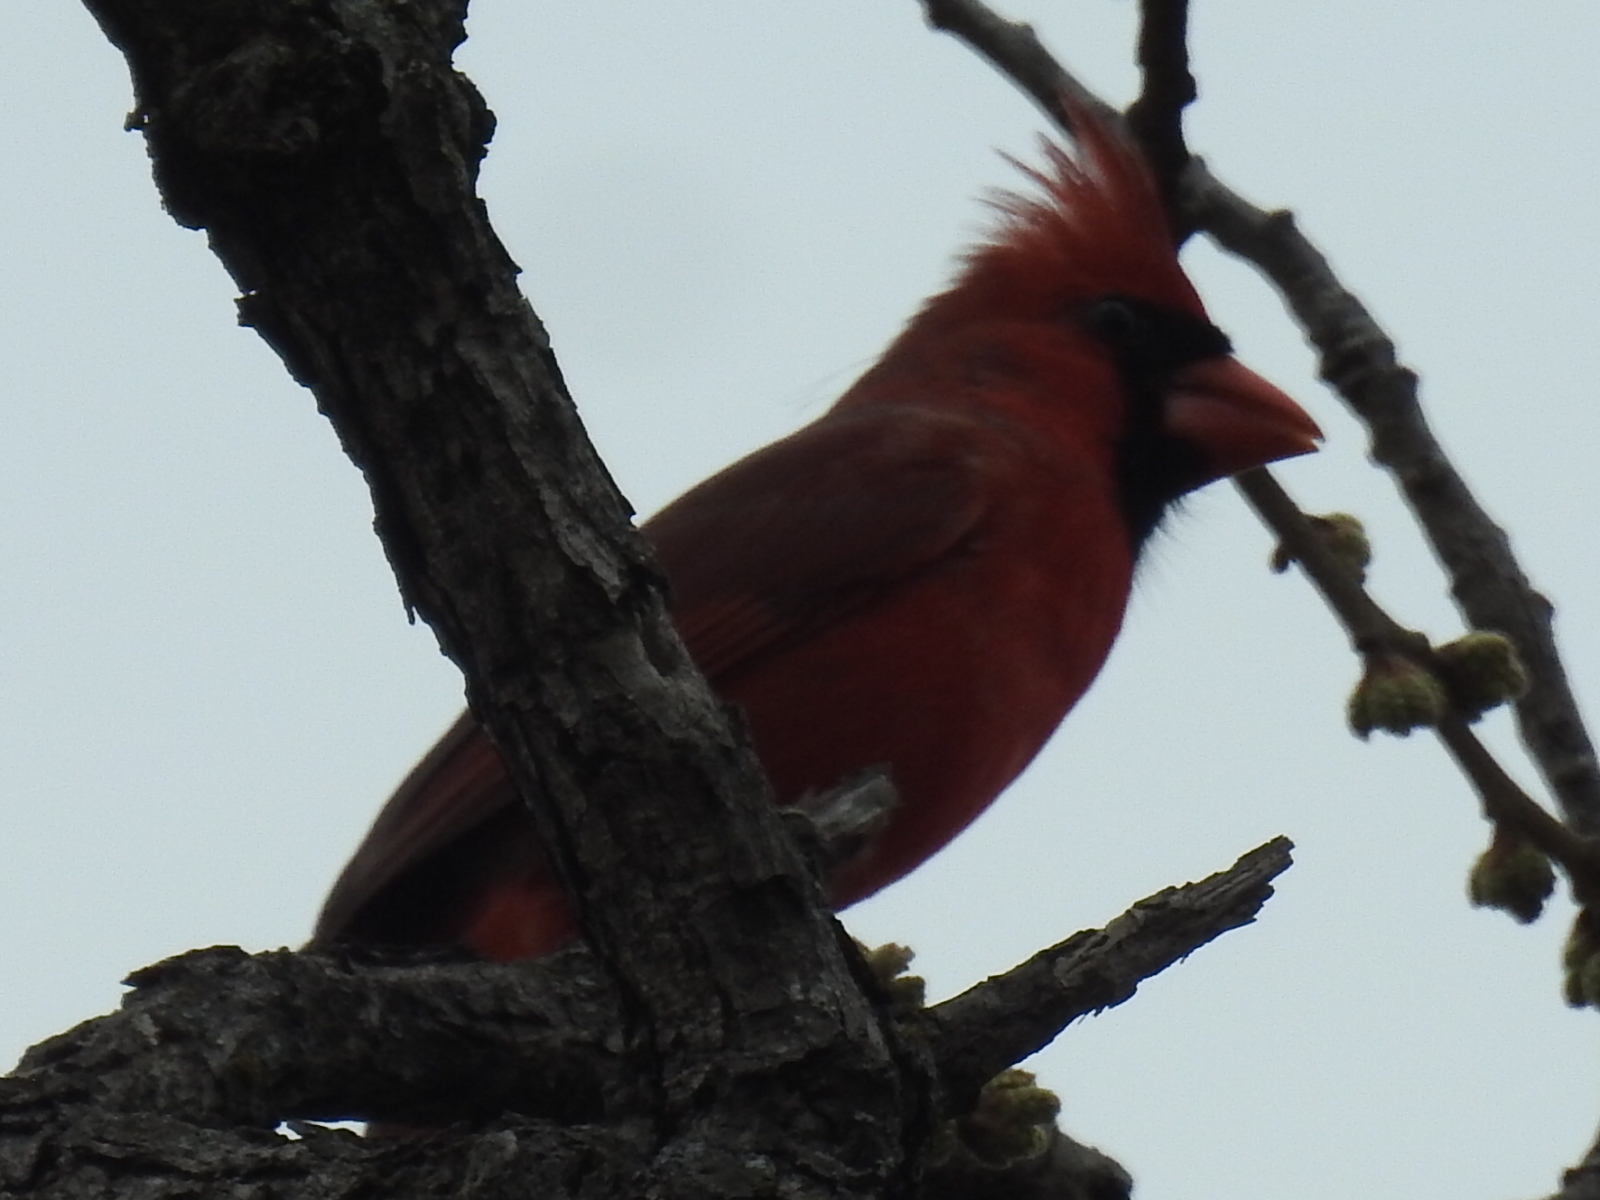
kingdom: Animalia
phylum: Chordata
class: Aves
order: Passeriformes
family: Cardinalidae
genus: Cardinalis
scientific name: Cardinalis cardinalis
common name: Northern cardinal
